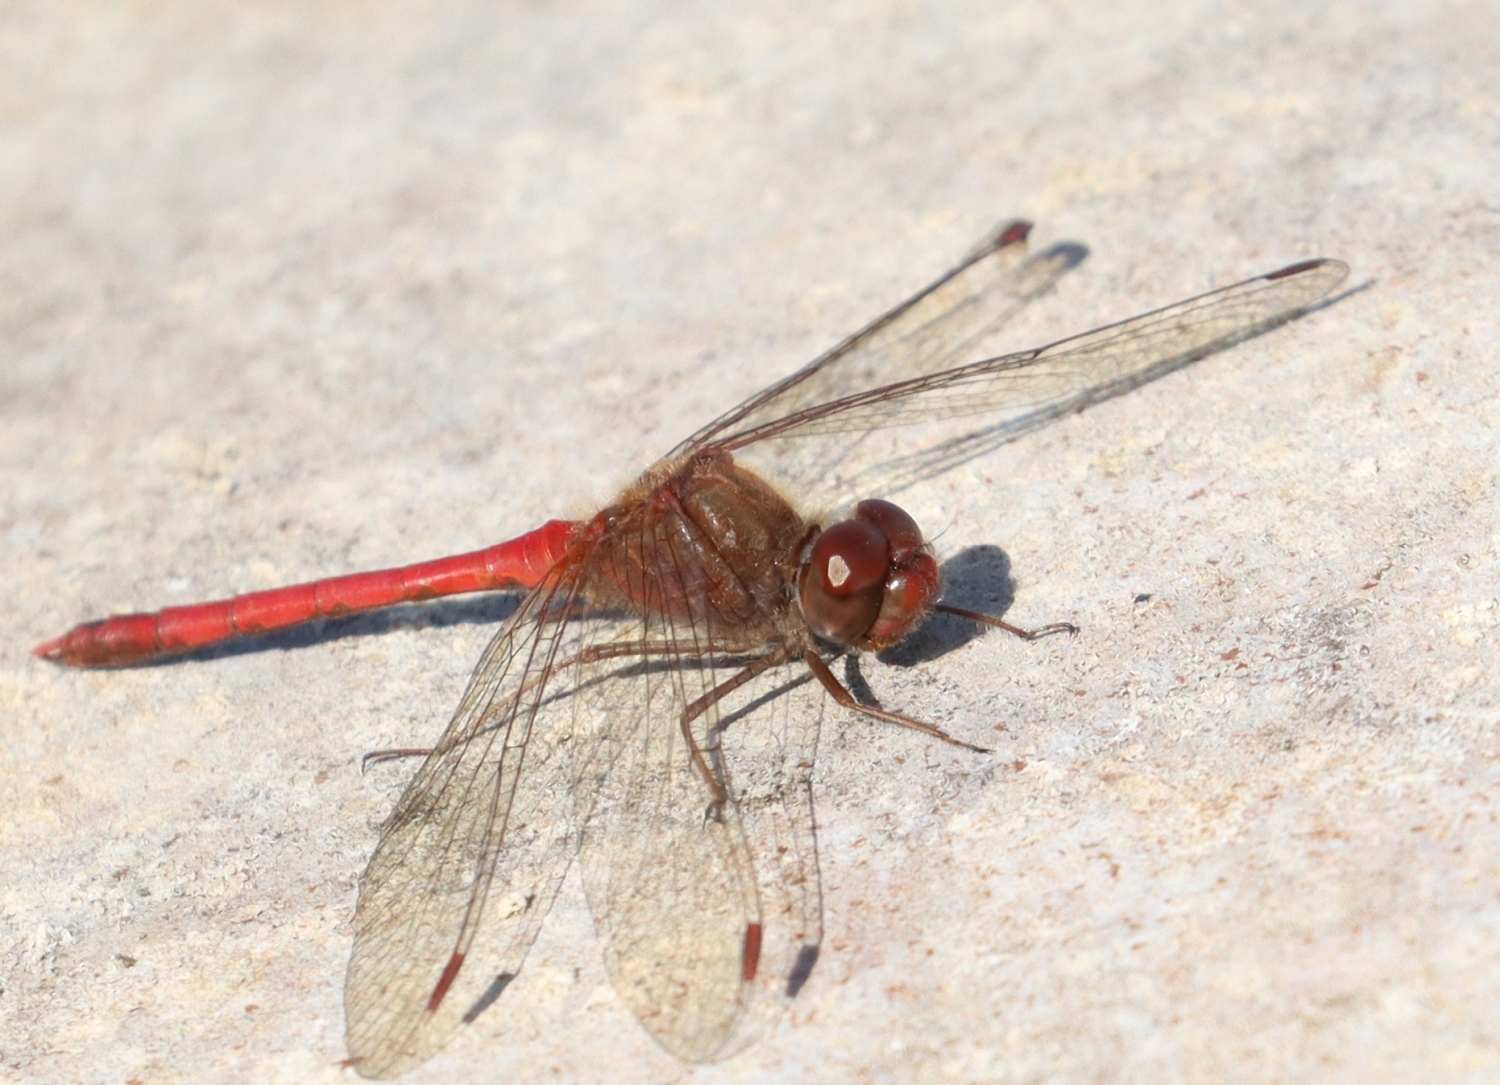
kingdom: Animalia
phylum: Arthropoda
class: Insecta
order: Odonata
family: Libellulidae
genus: Sympetrum
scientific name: Sympetrum vicinum
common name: Autumn meadowhawk
